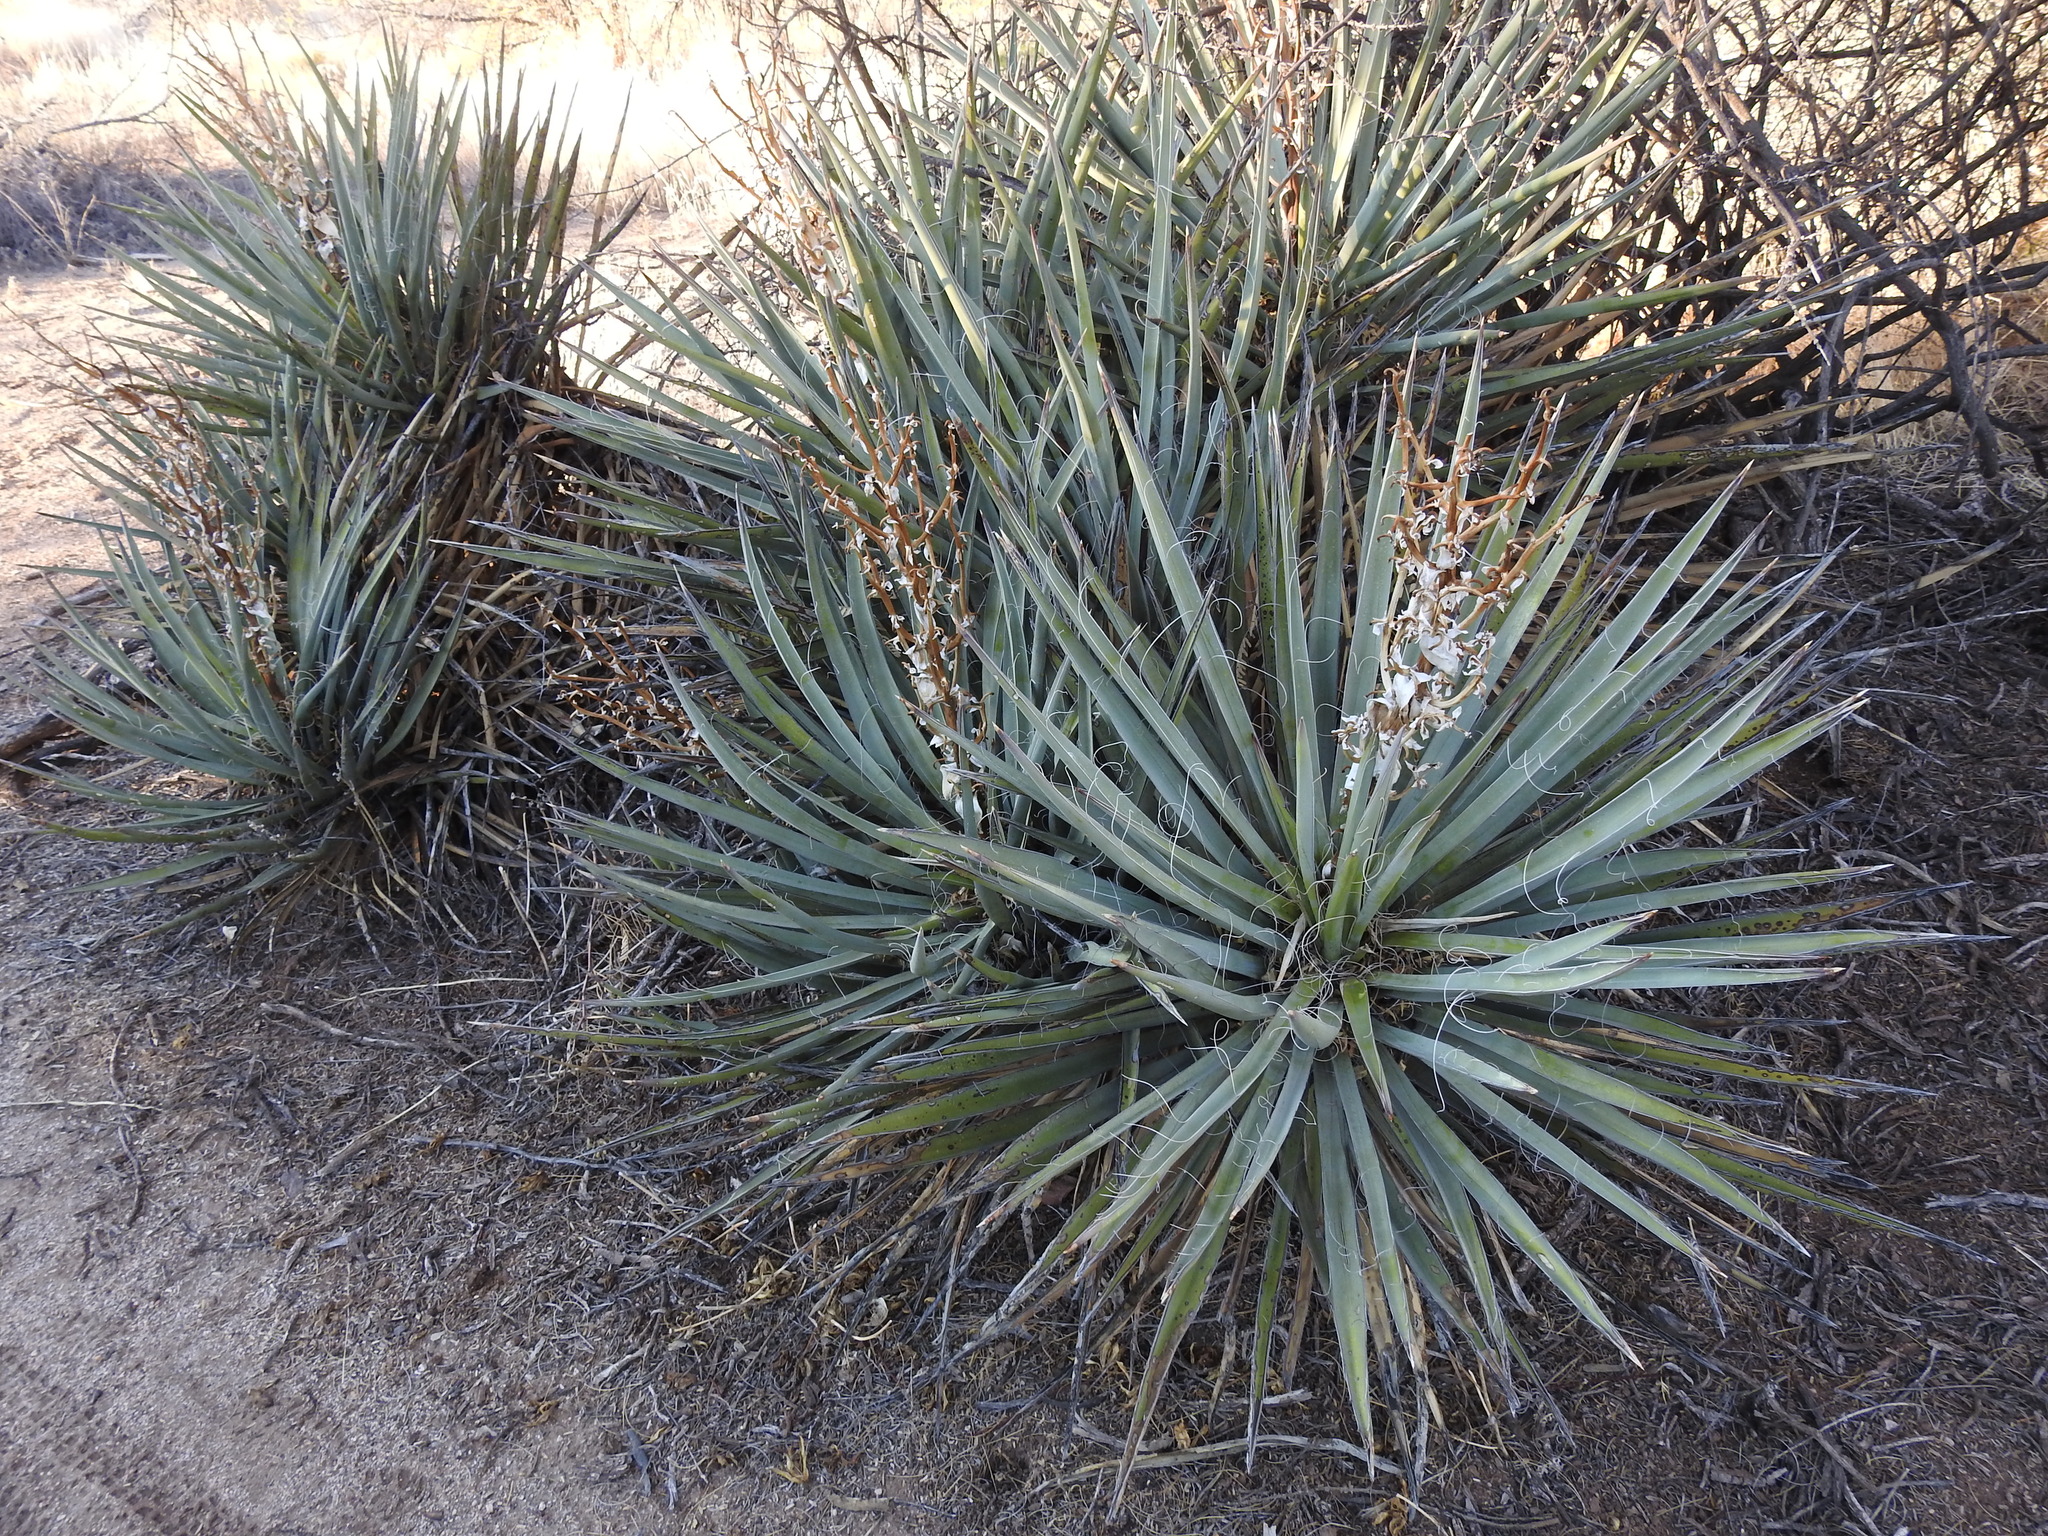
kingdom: Plantae
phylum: Tracheophyta
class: Liliopsida
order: Asparagales
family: Asparagaceae
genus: Yucca
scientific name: Yucca baccata
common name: Banana yucca
